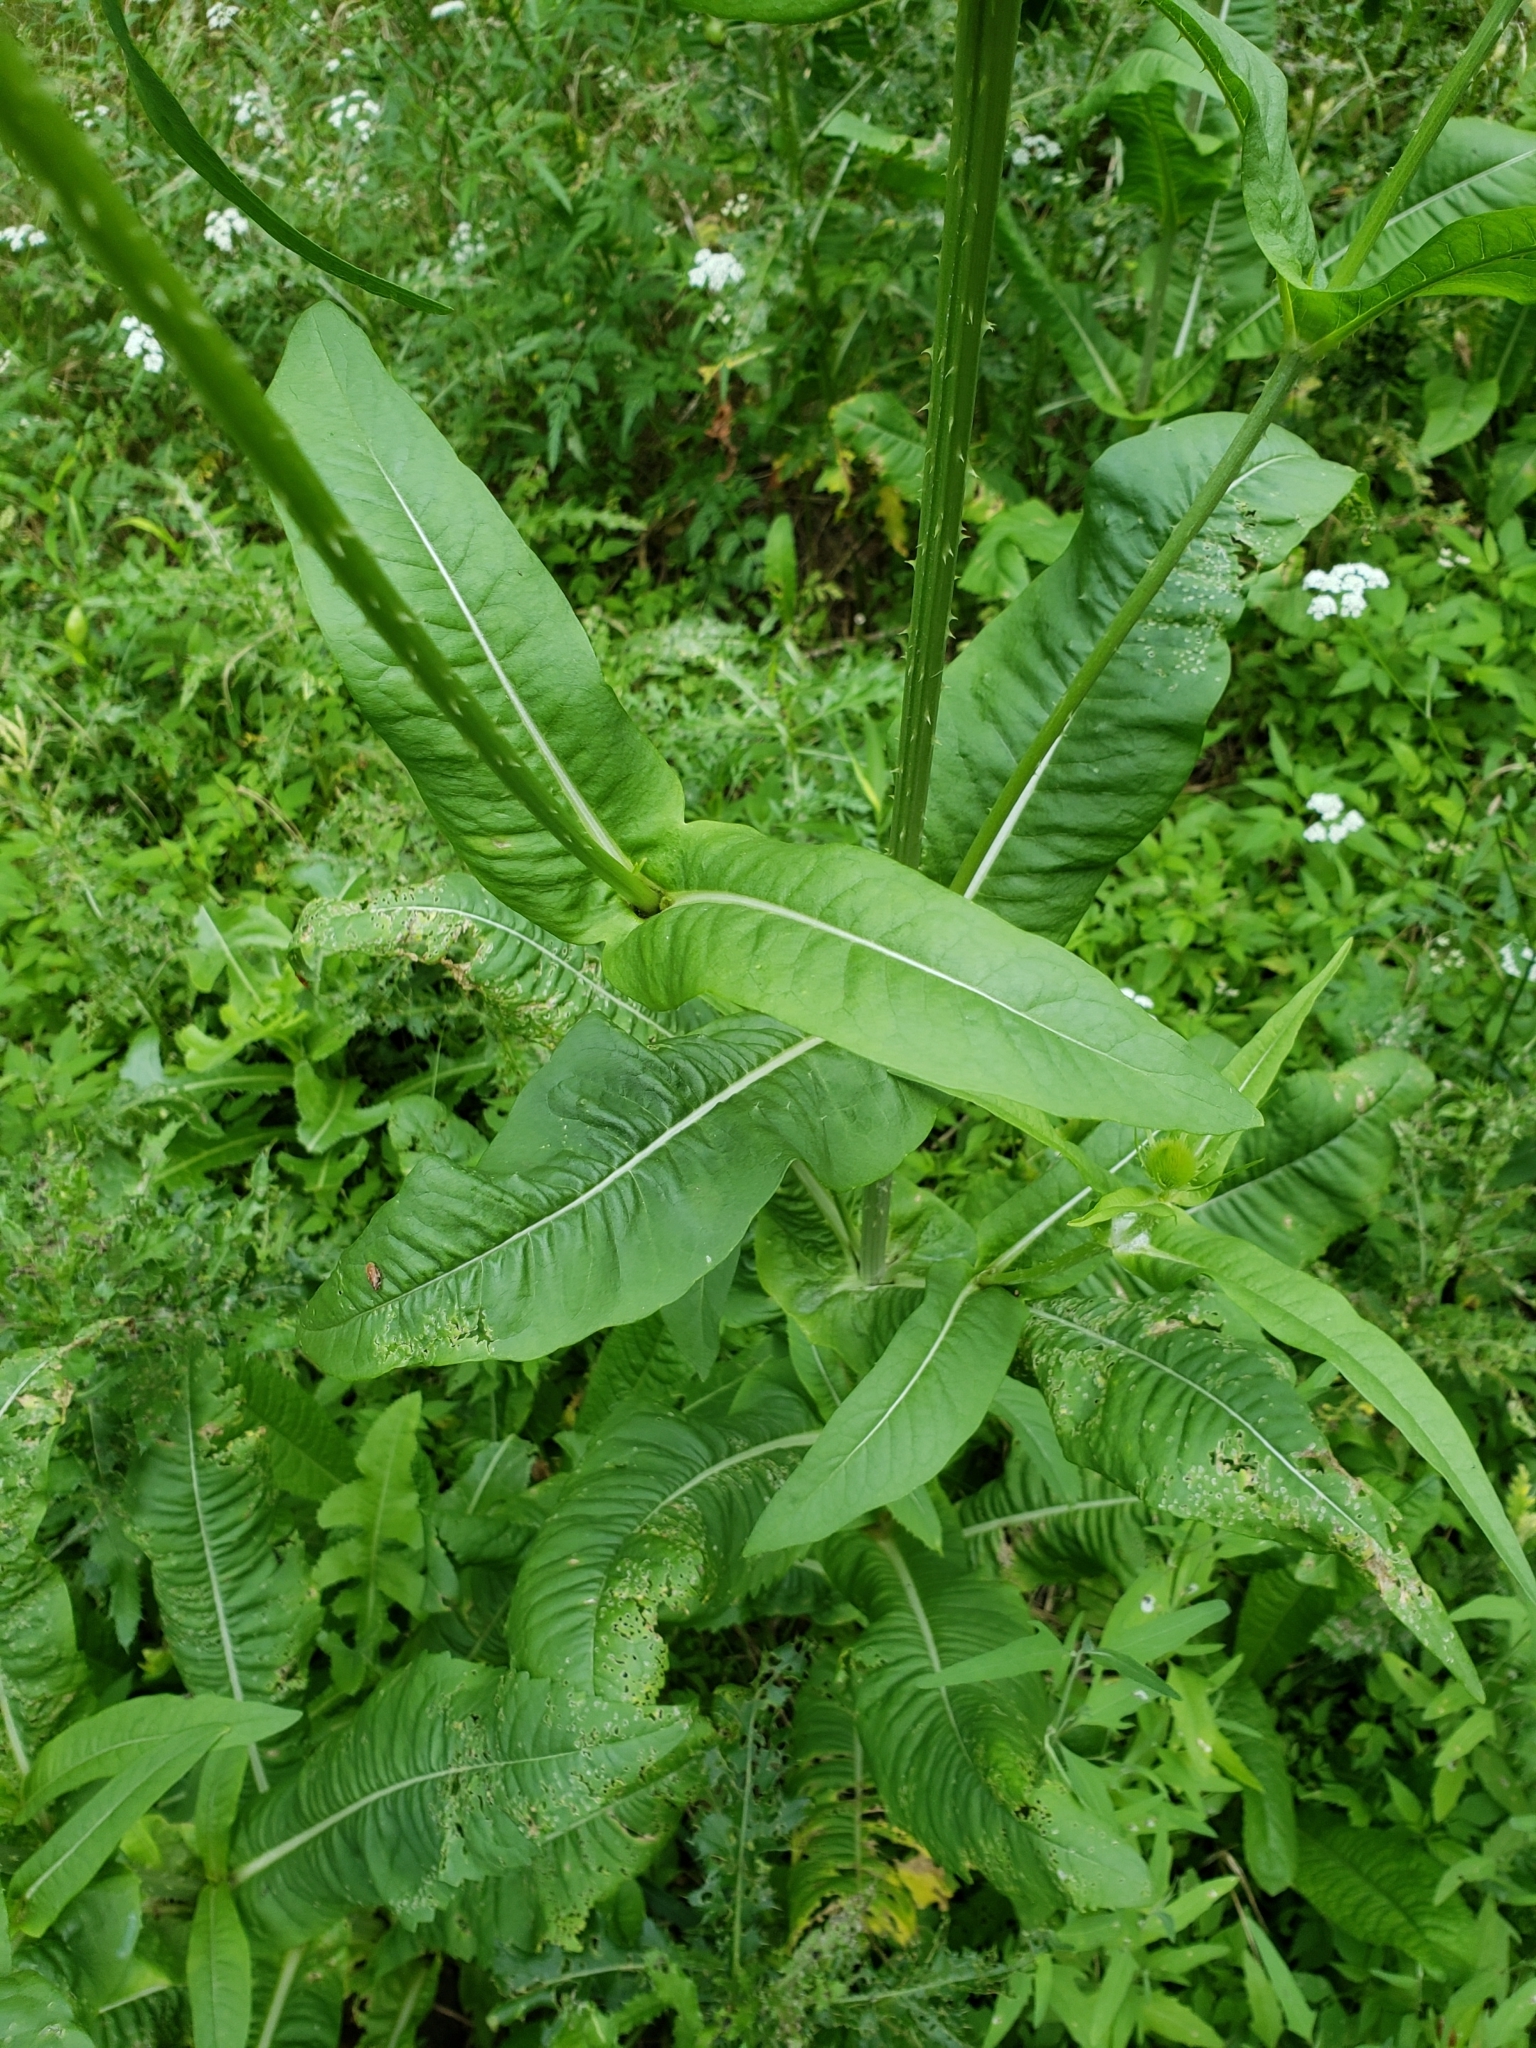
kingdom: Plantae
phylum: Tracheophyta
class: Magnoliopsida
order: Dipsacales
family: Caprifoliaceae
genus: Dipsacus
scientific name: Dipsacus fullonum
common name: Teasel
